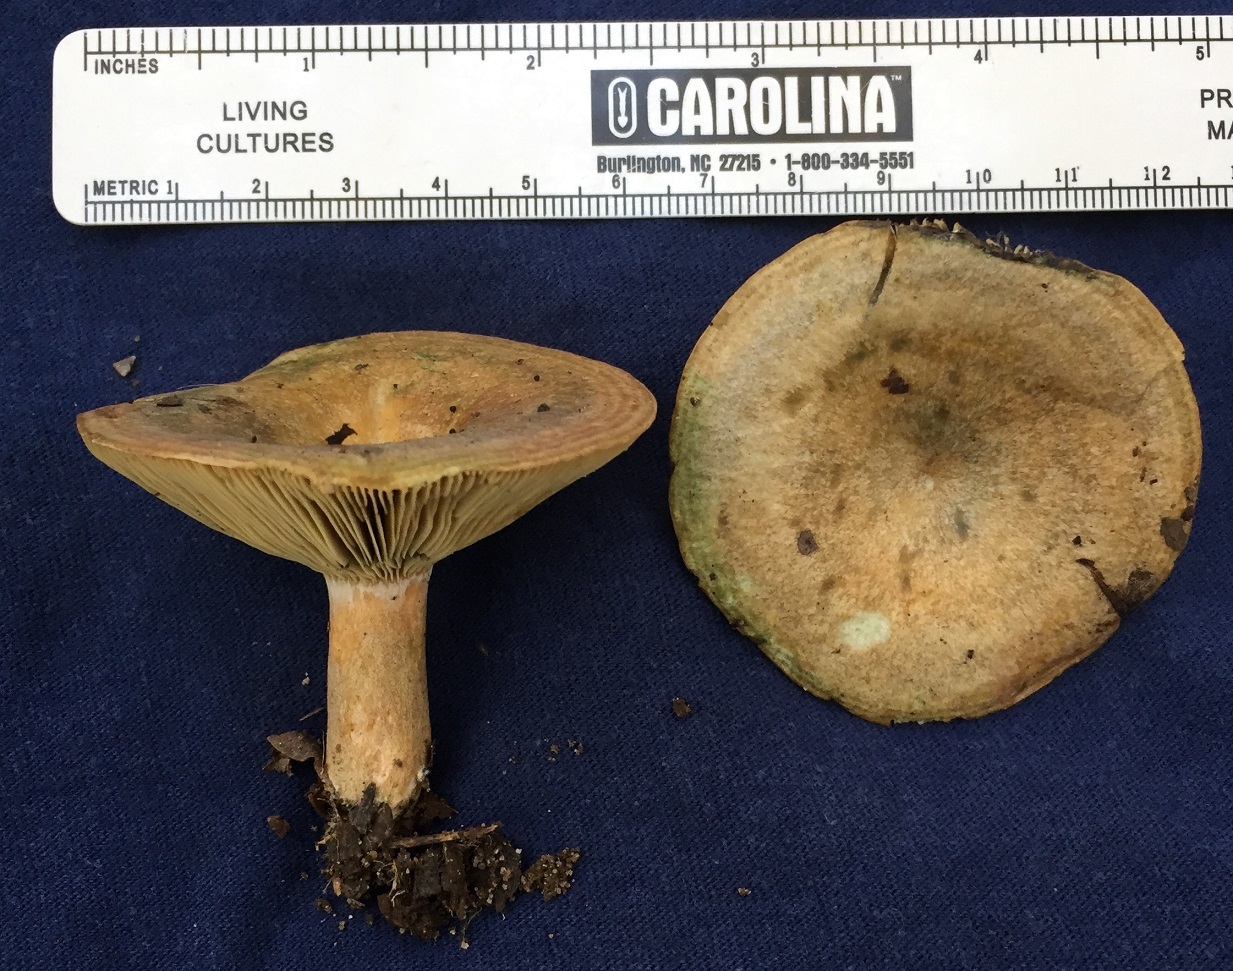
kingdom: Fungi
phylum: Basidiomycota
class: Agaricomycetes
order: Russulales
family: Russulaceae
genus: Lactarius
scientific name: Lactarius deliciosus
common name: Saffron milk-cap
